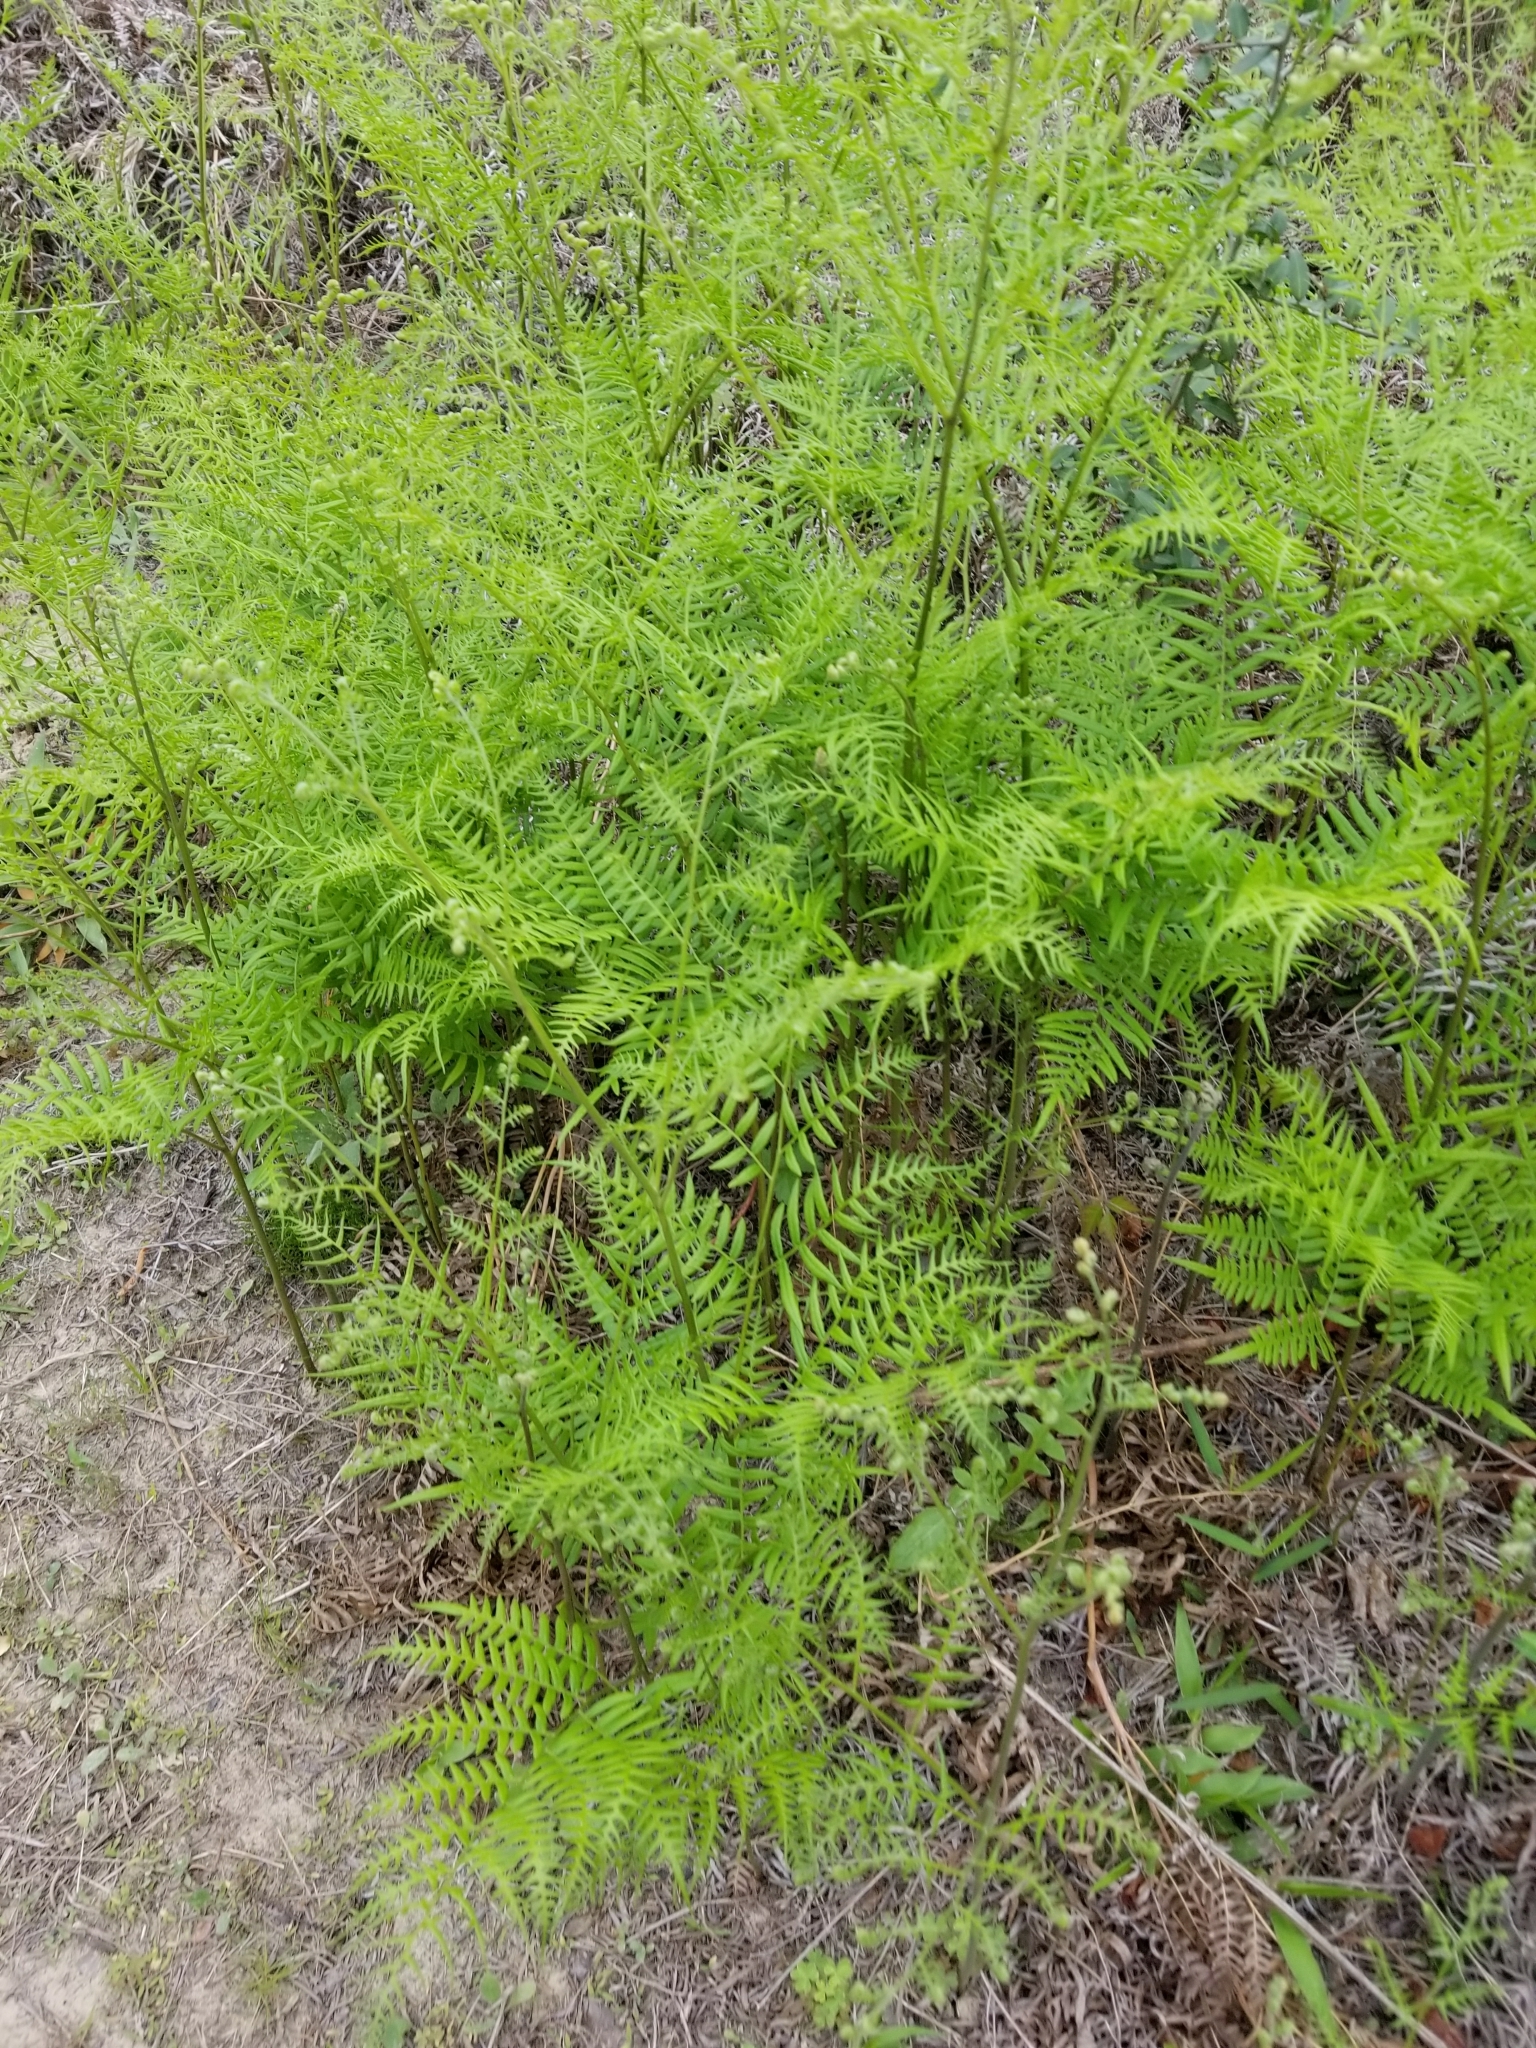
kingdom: Plantae
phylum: Tracheophyta
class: Polypodiopsida
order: Polypodiales
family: Dennstaedtiaceae
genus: Pteridium
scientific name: Pteridium aquilinum
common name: Bracken
